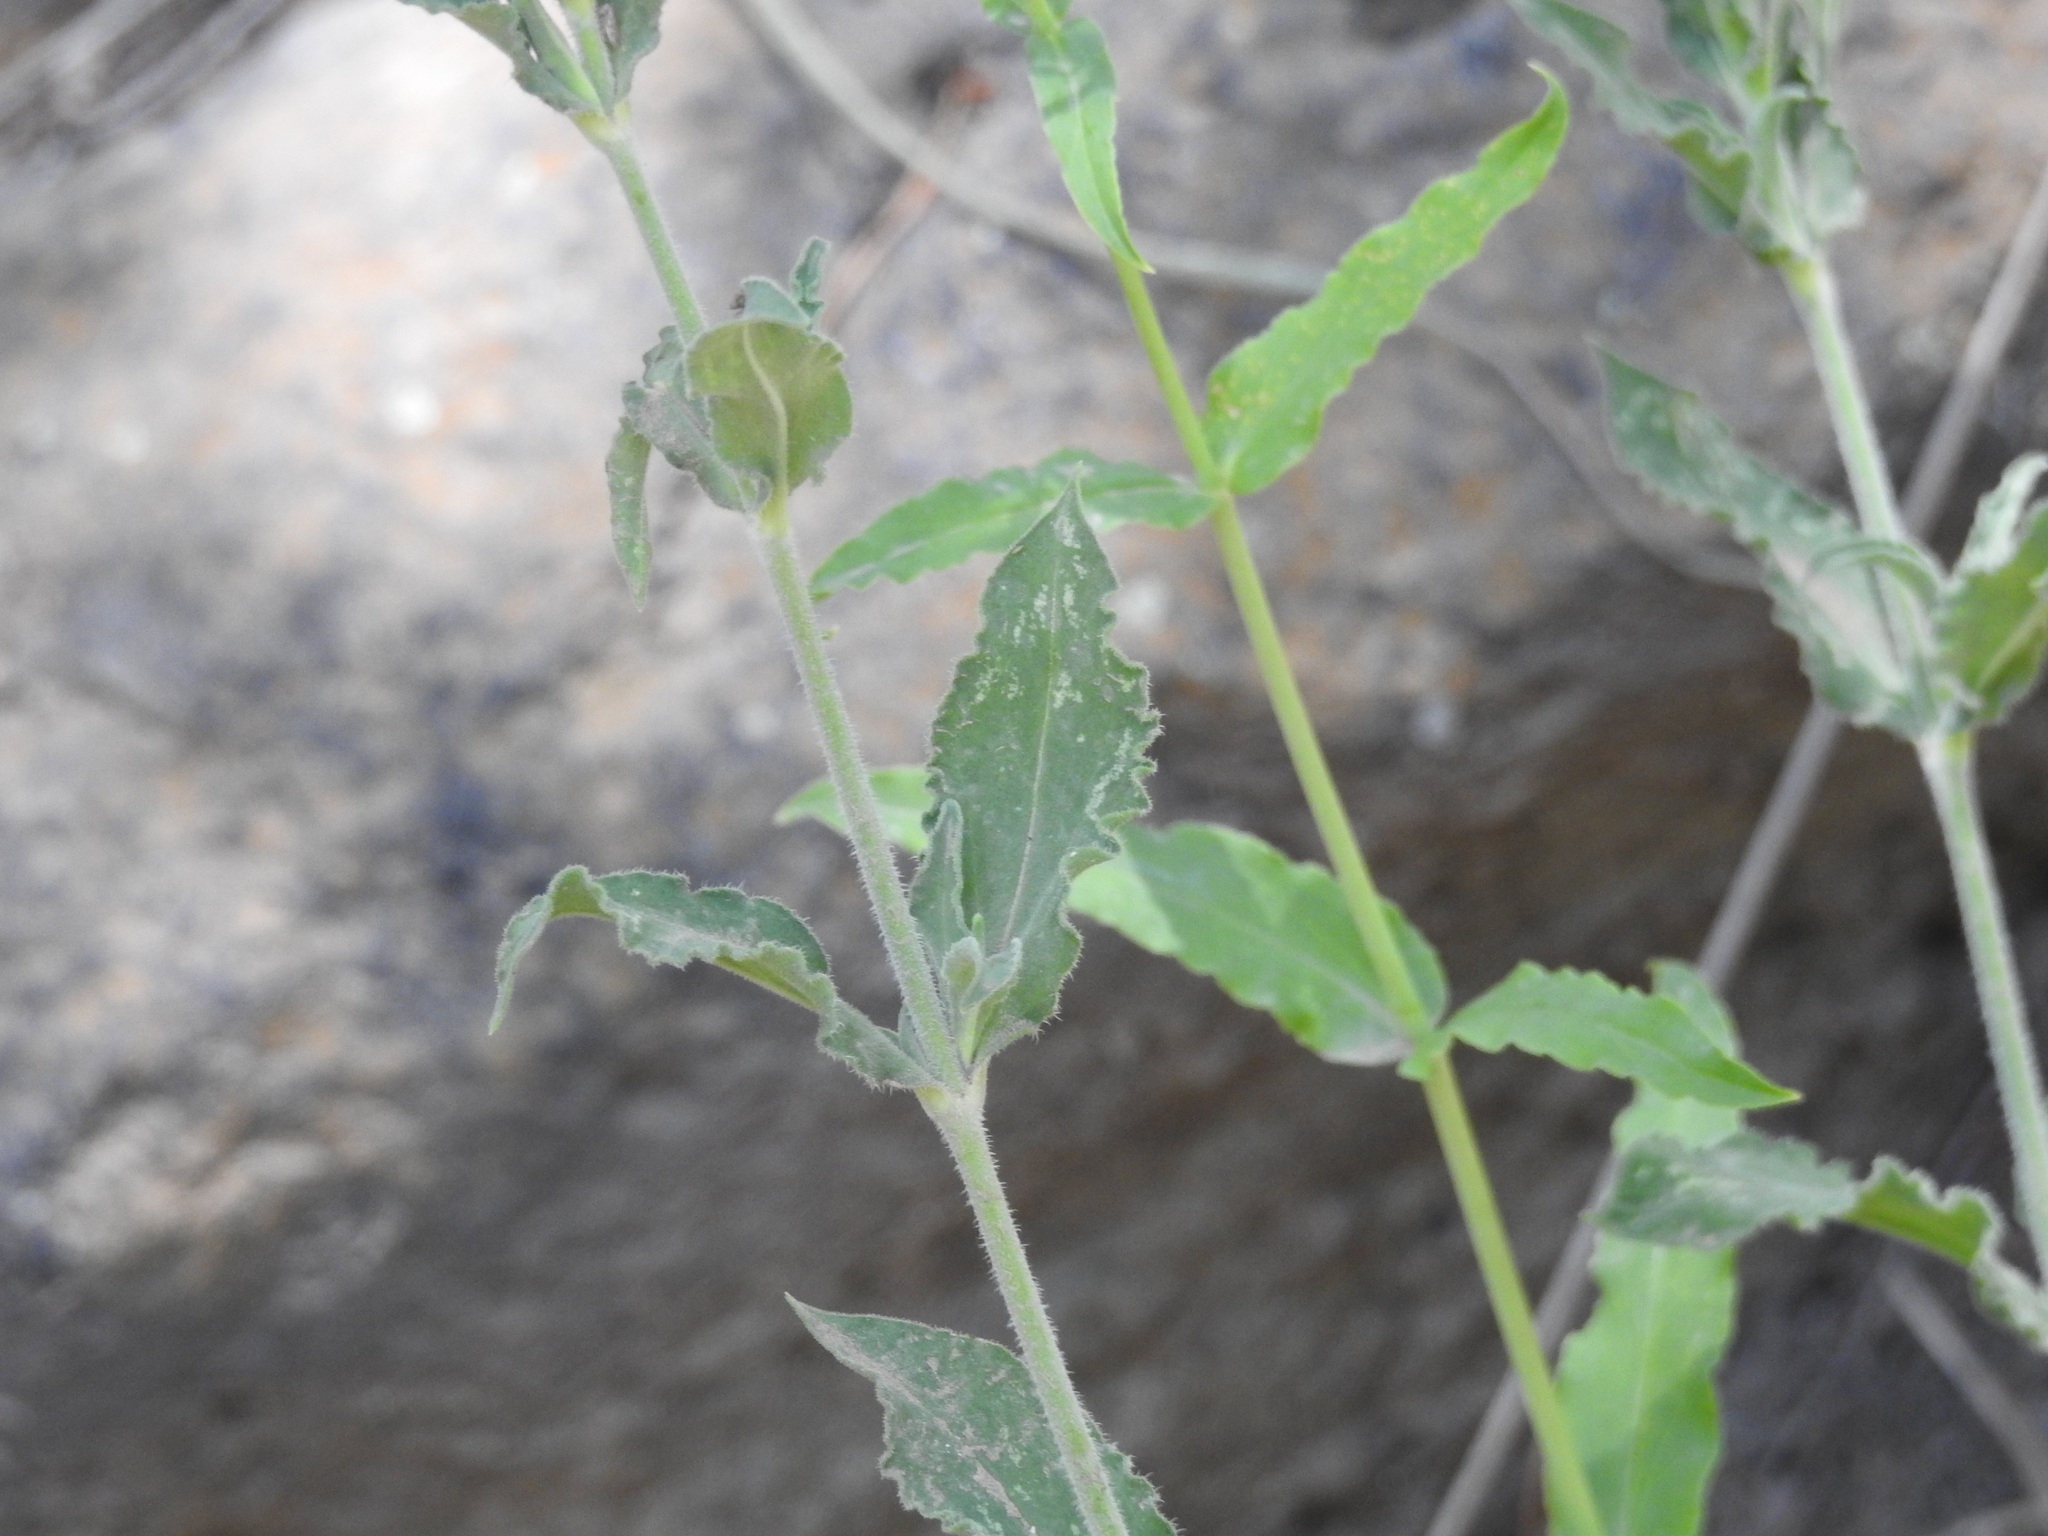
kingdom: Plantae
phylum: Tracheophyta
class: Magnoliopsida
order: Lamiales
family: Plantaginaceae
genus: Penstemon
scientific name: Penstemon barbatus
